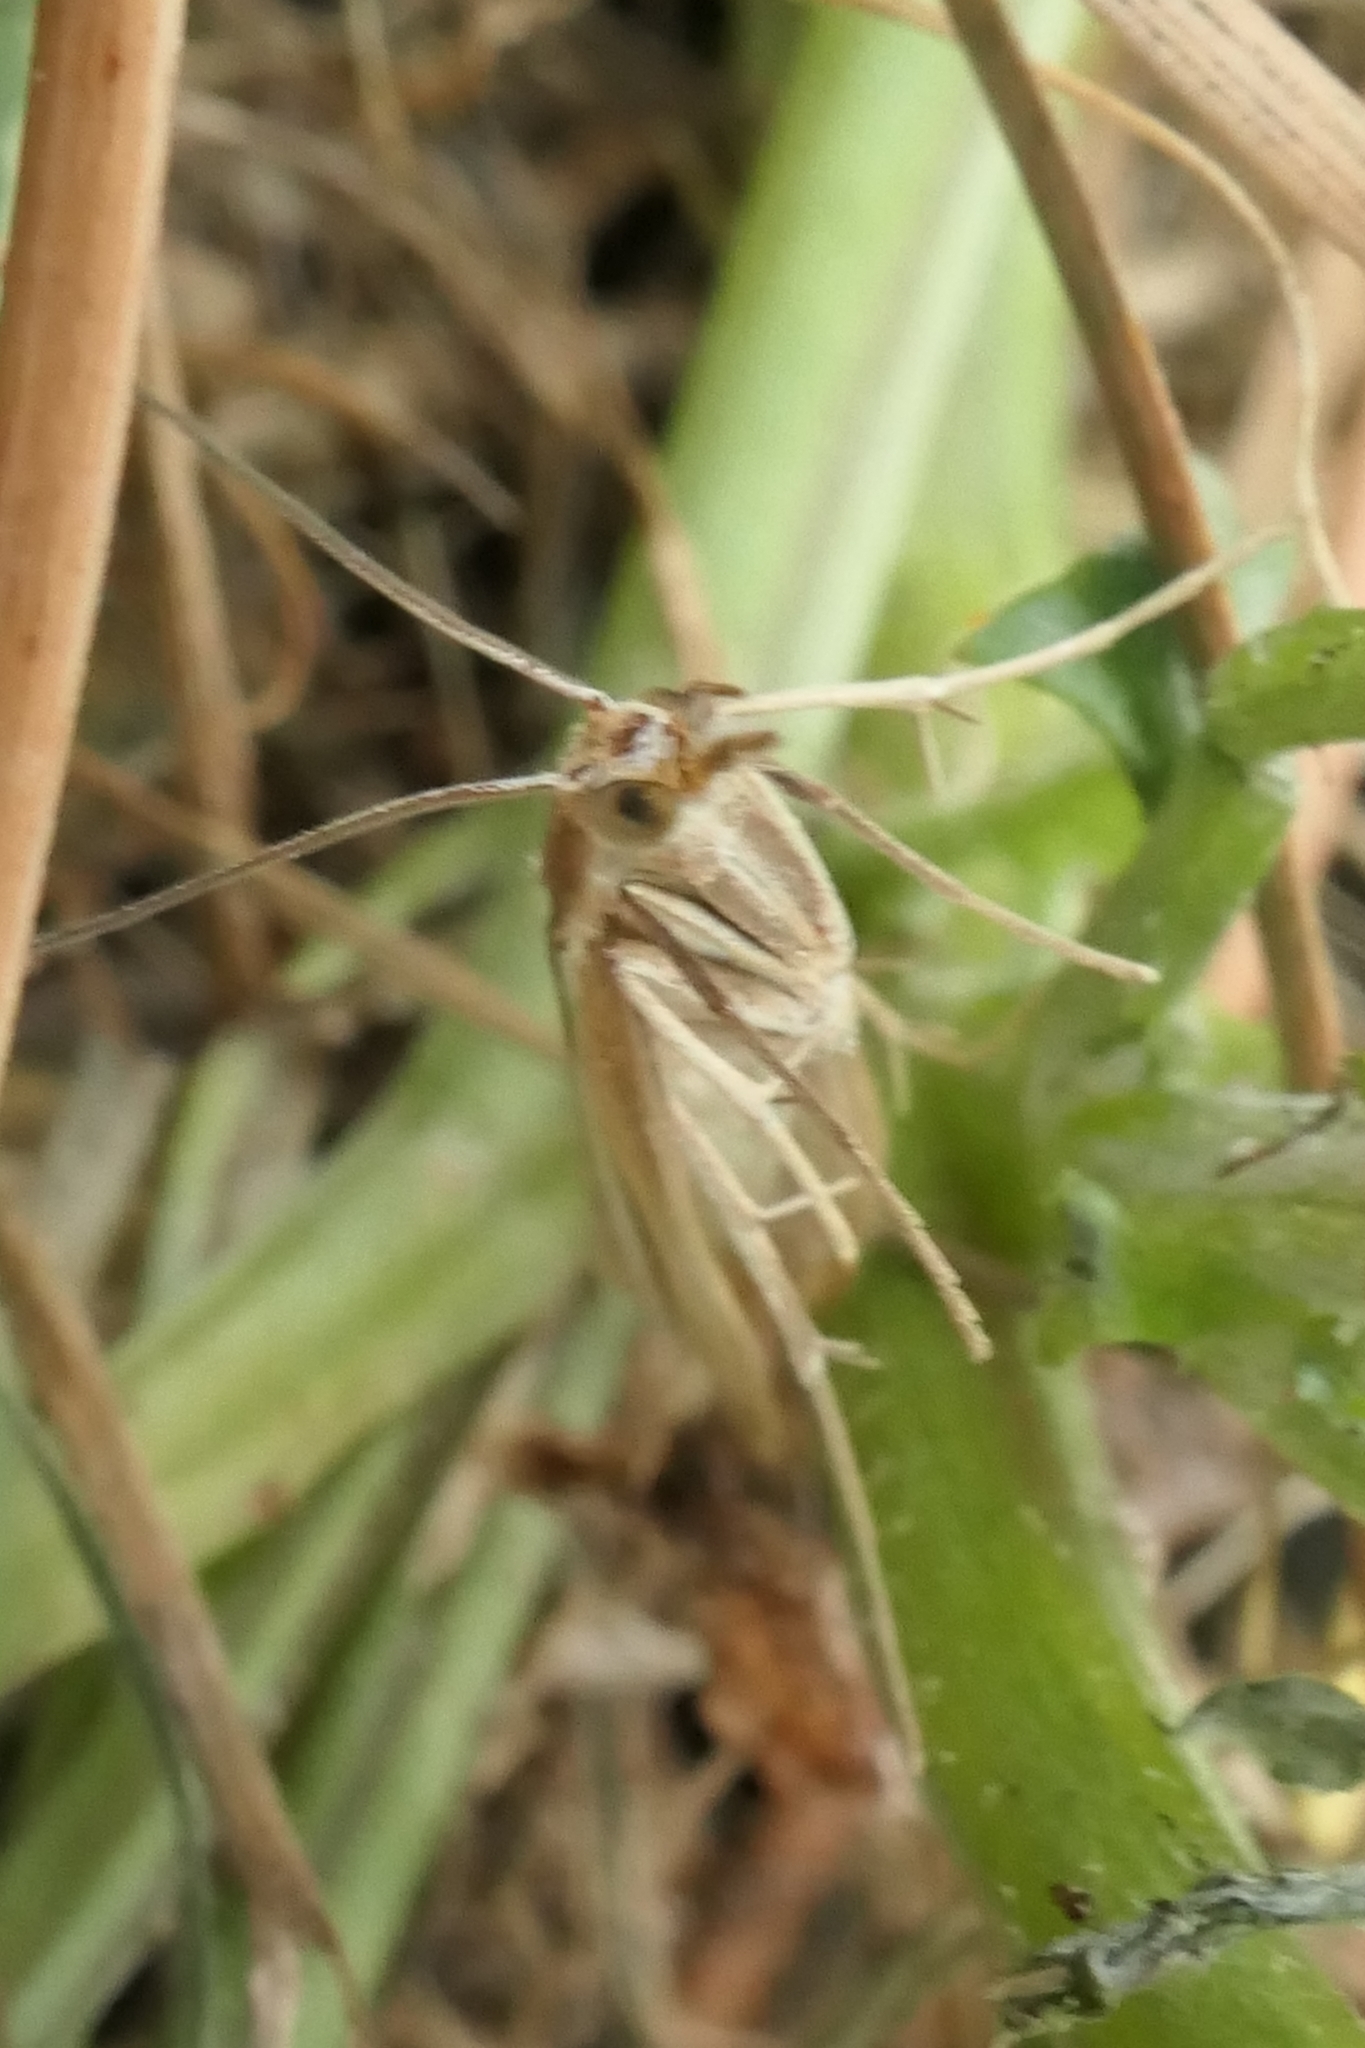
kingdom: Animalia
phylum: Arthropoda
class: Insecta
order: Lepidoptera
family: Crambidae
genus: Orocrambus
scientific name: Orocrambus lewisi
